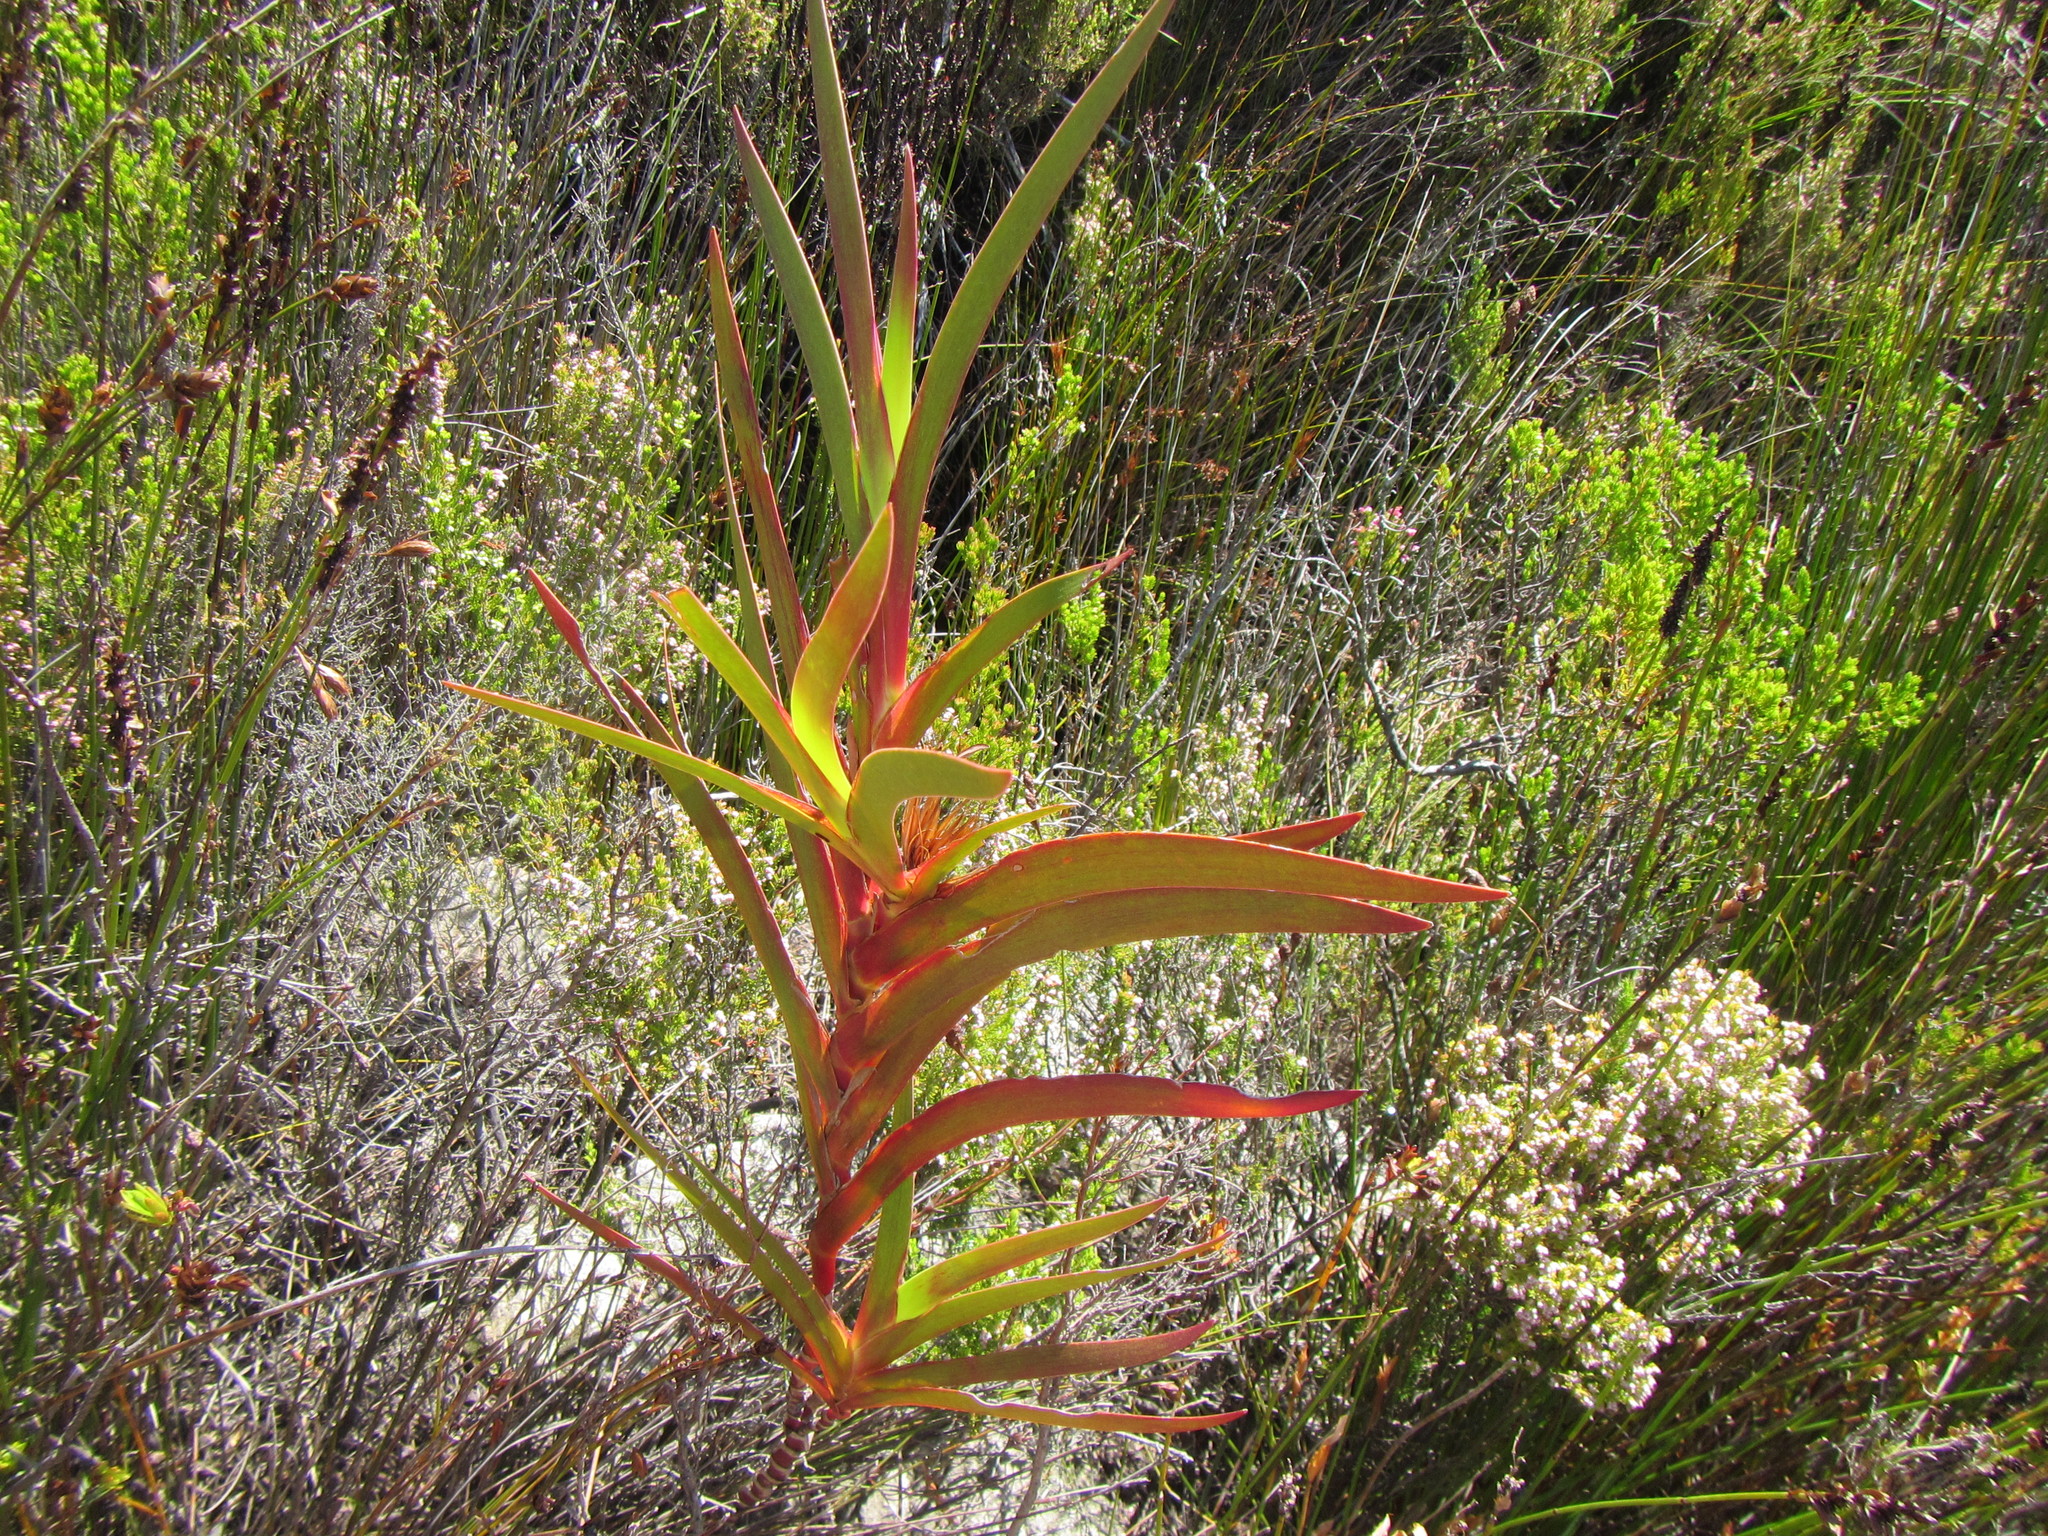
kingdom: Plantae
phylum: Tracheophyta
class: Liliopsida
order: Asparagales
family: Iridaceae
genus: Klattia
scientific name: Klattia stokoei
